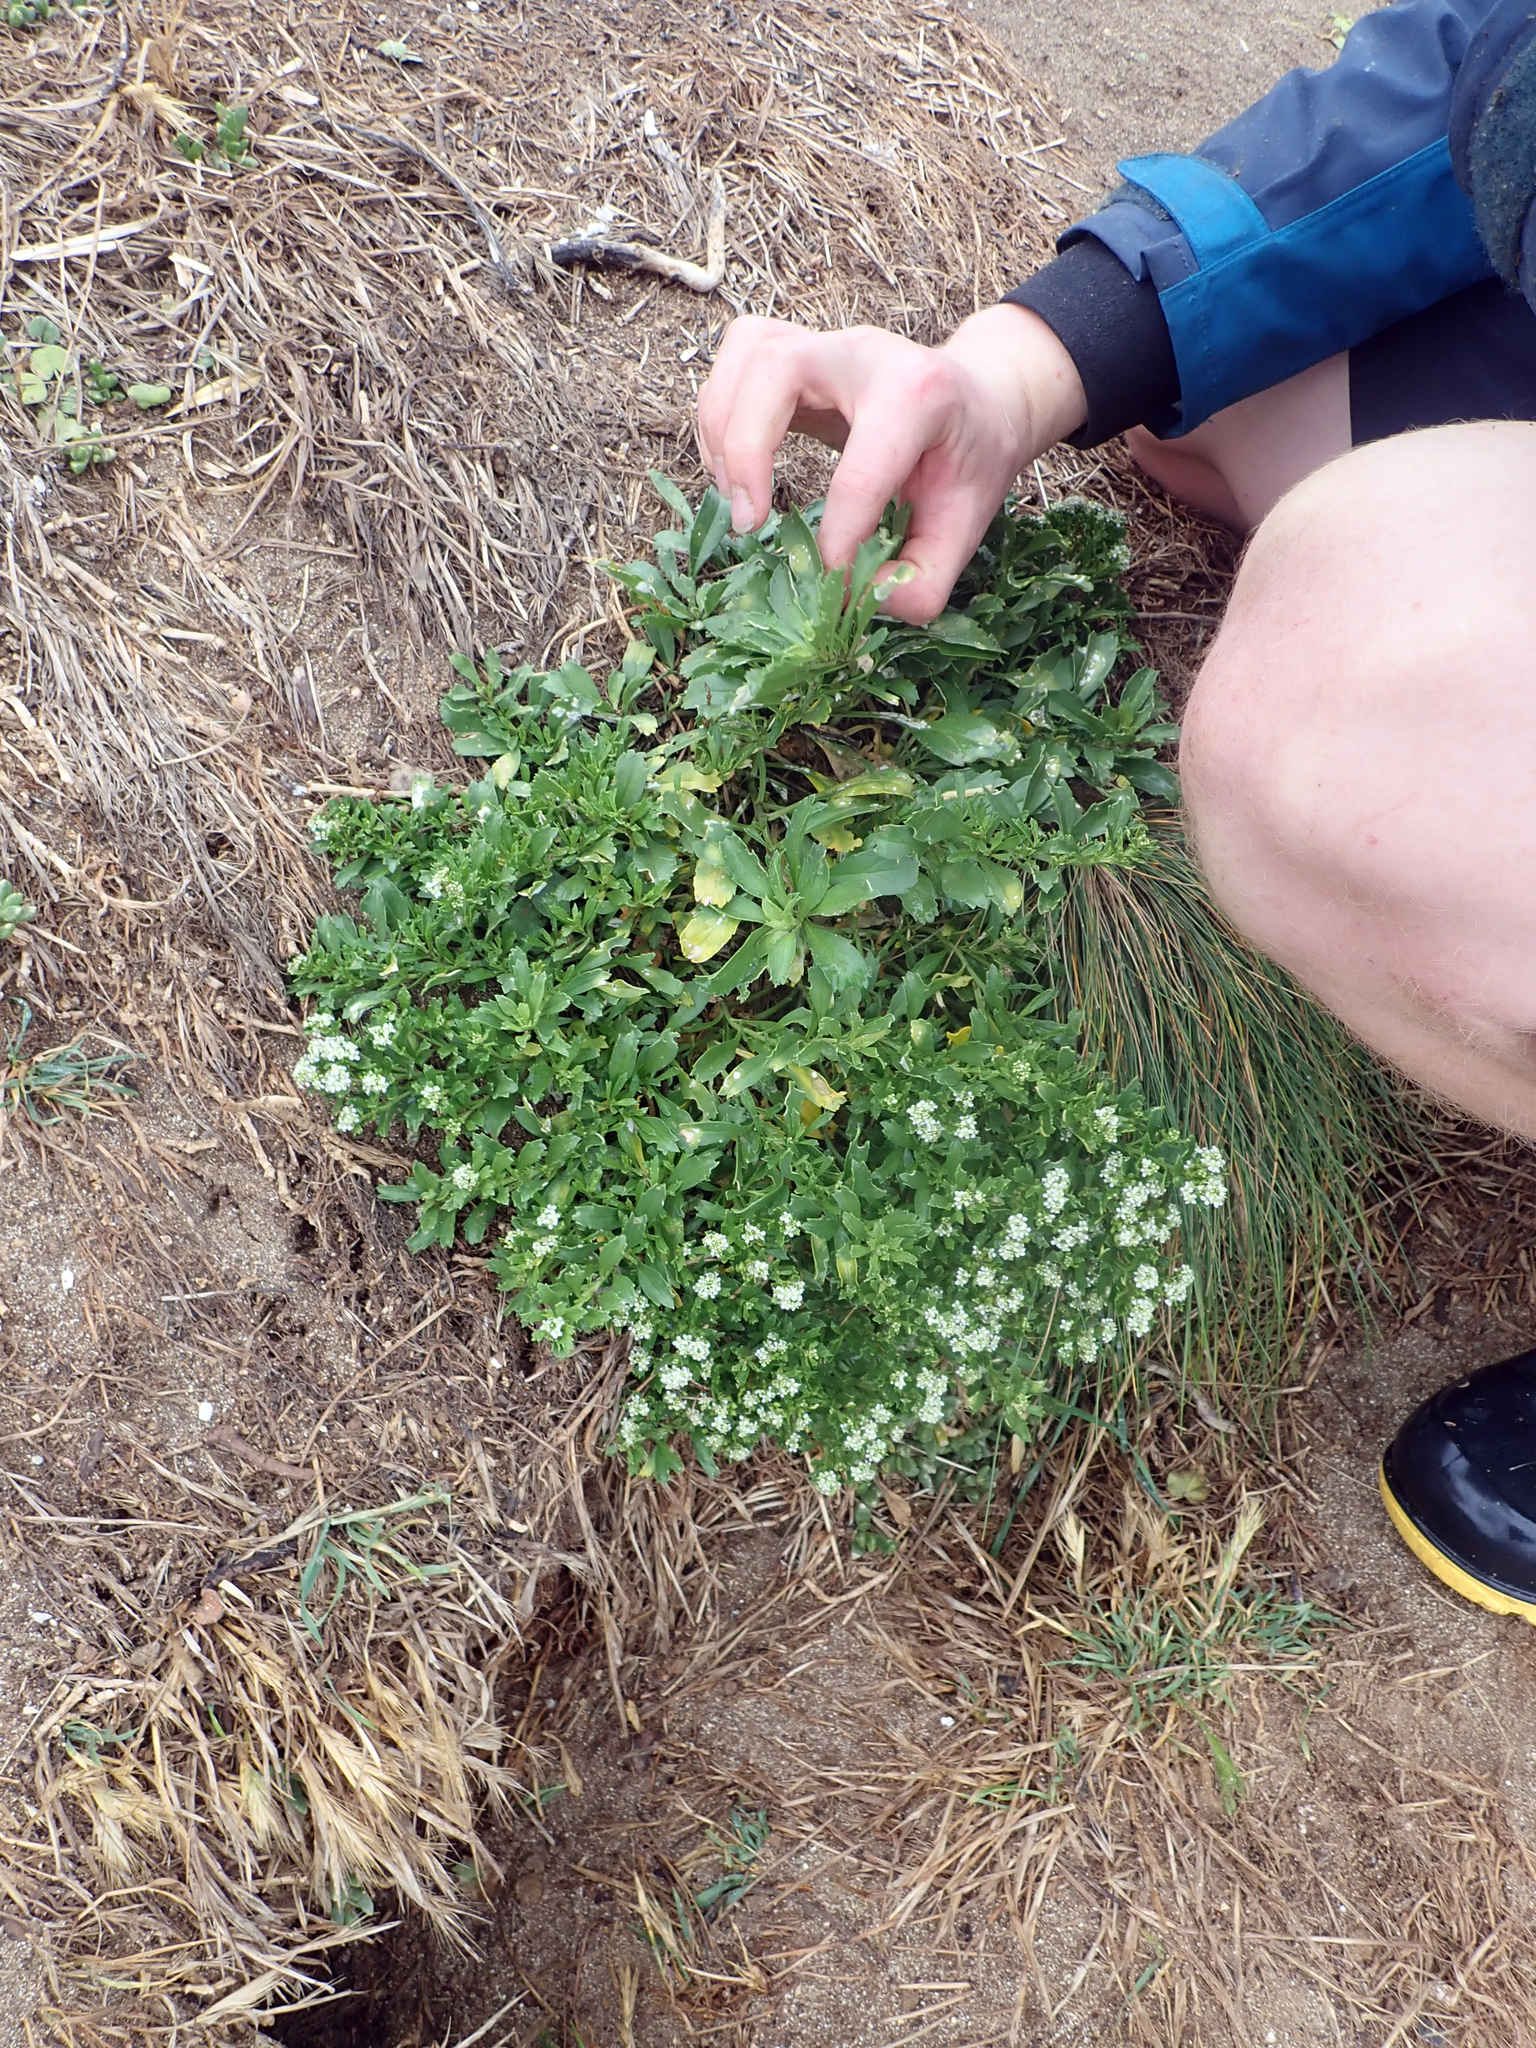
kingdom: Plantae
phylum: Tracheophyta
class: Magnoliopsida
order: Brassicales
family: Brassicaceae
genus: Lepidium
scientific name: Lepidium oblitum
